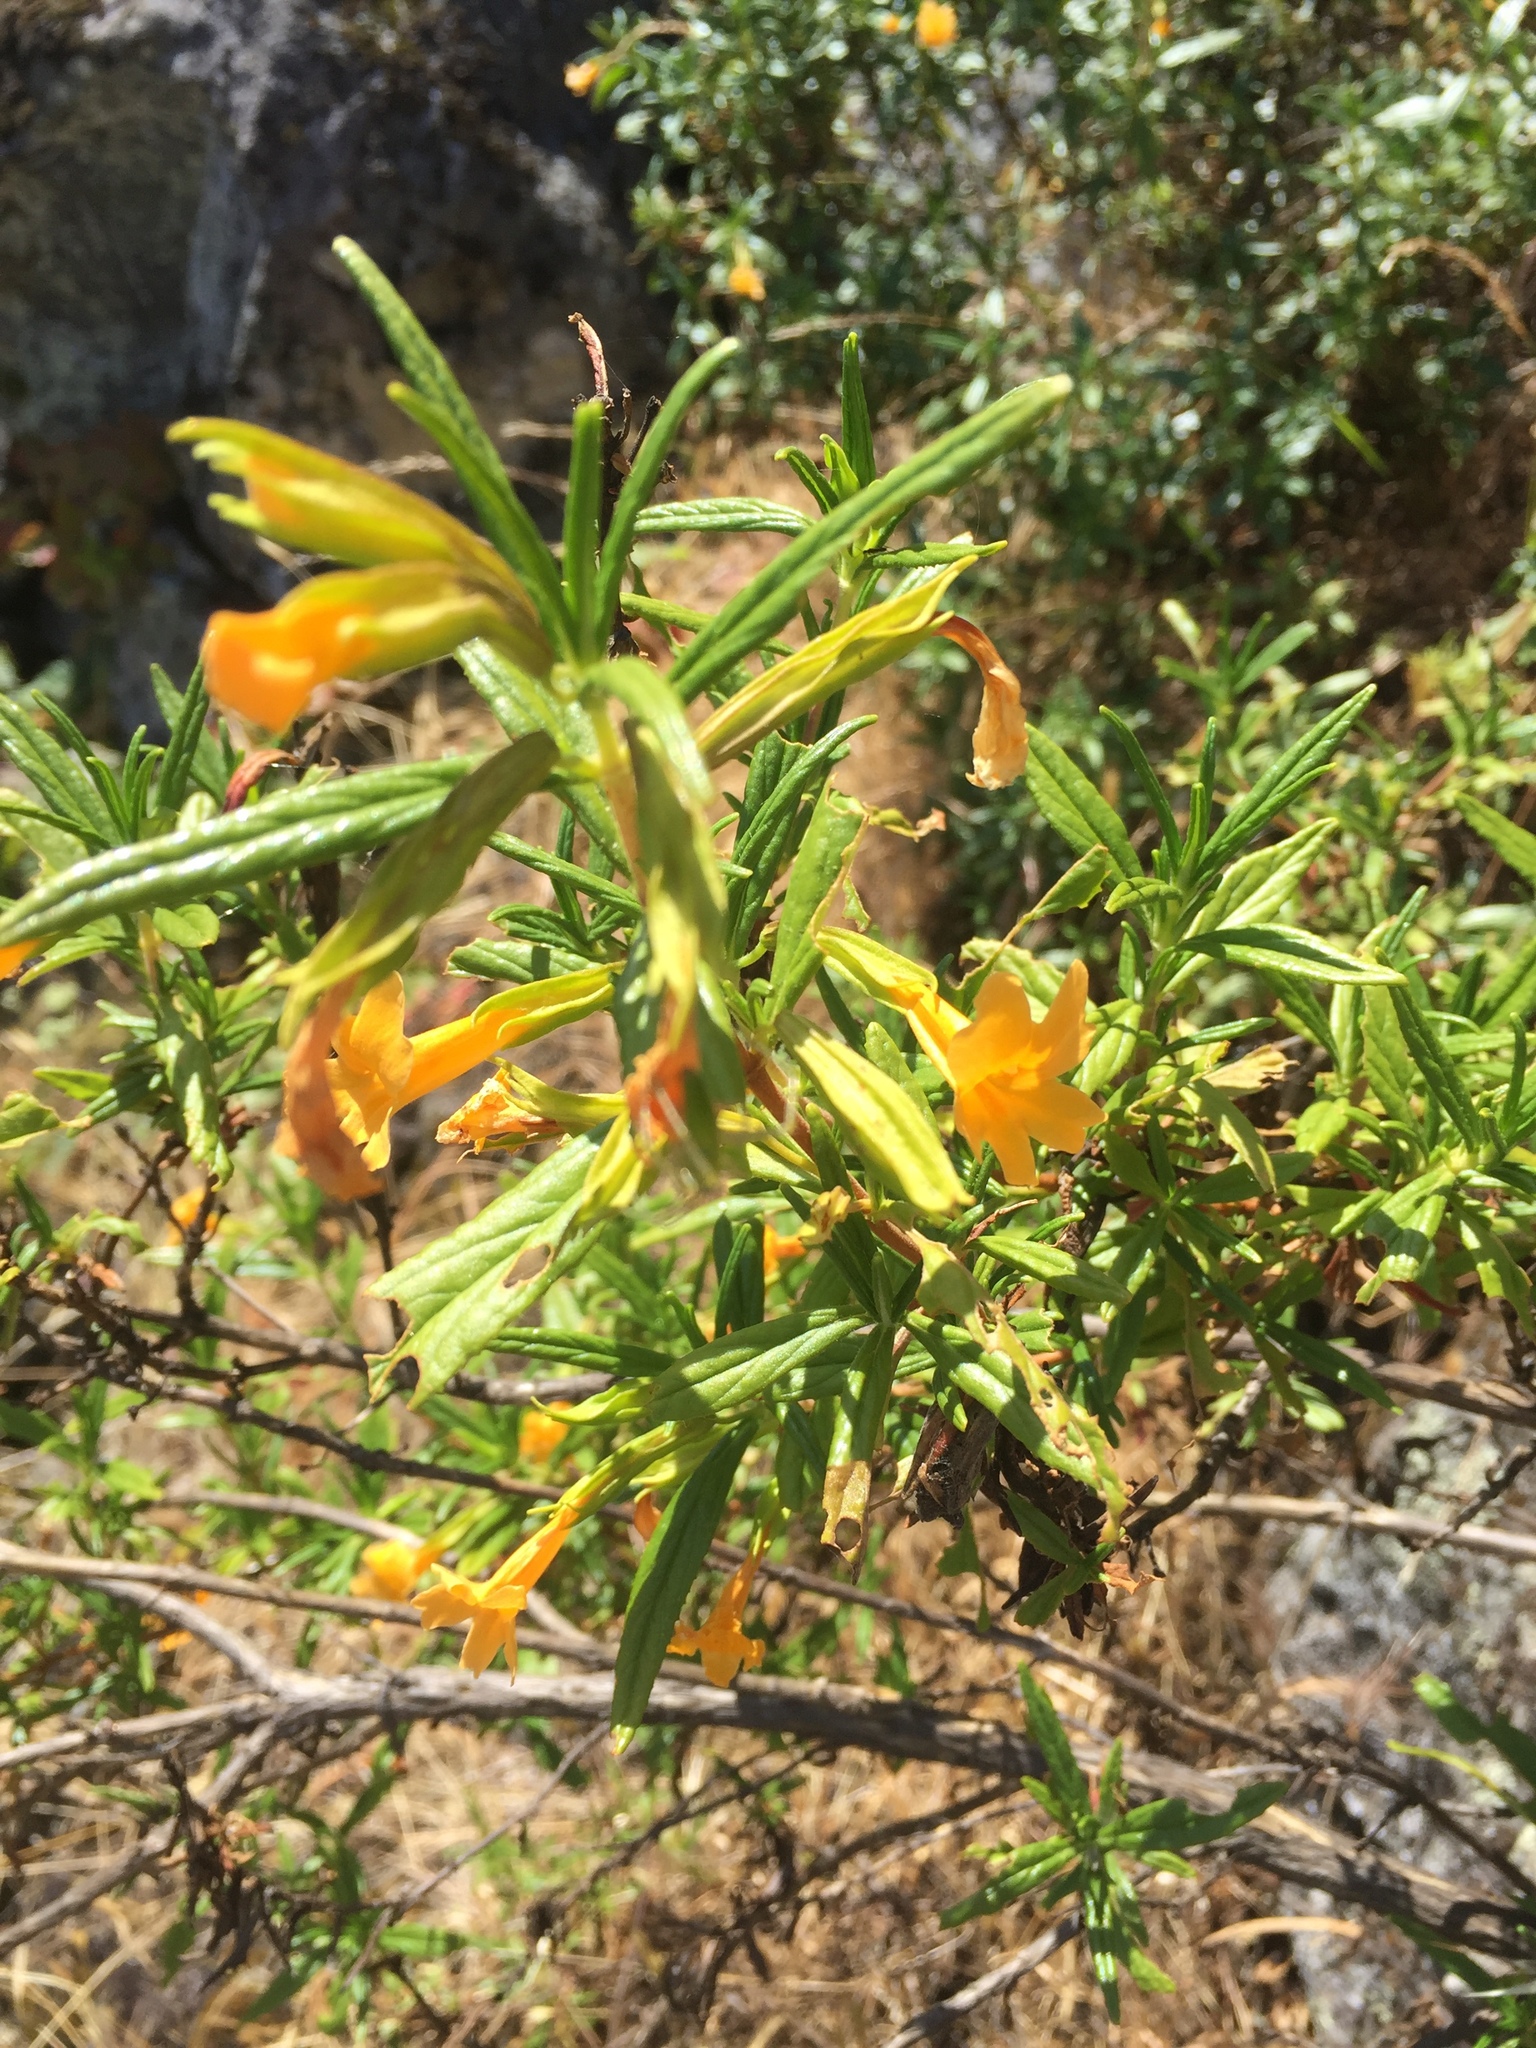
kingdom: Plantae
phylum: Tracheophyta
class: Magnoliopsida
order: Lamiales
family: Phrymaceae
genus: Diplacus
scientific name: Diplacus aurantiacus
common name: Bush monkey-flower
